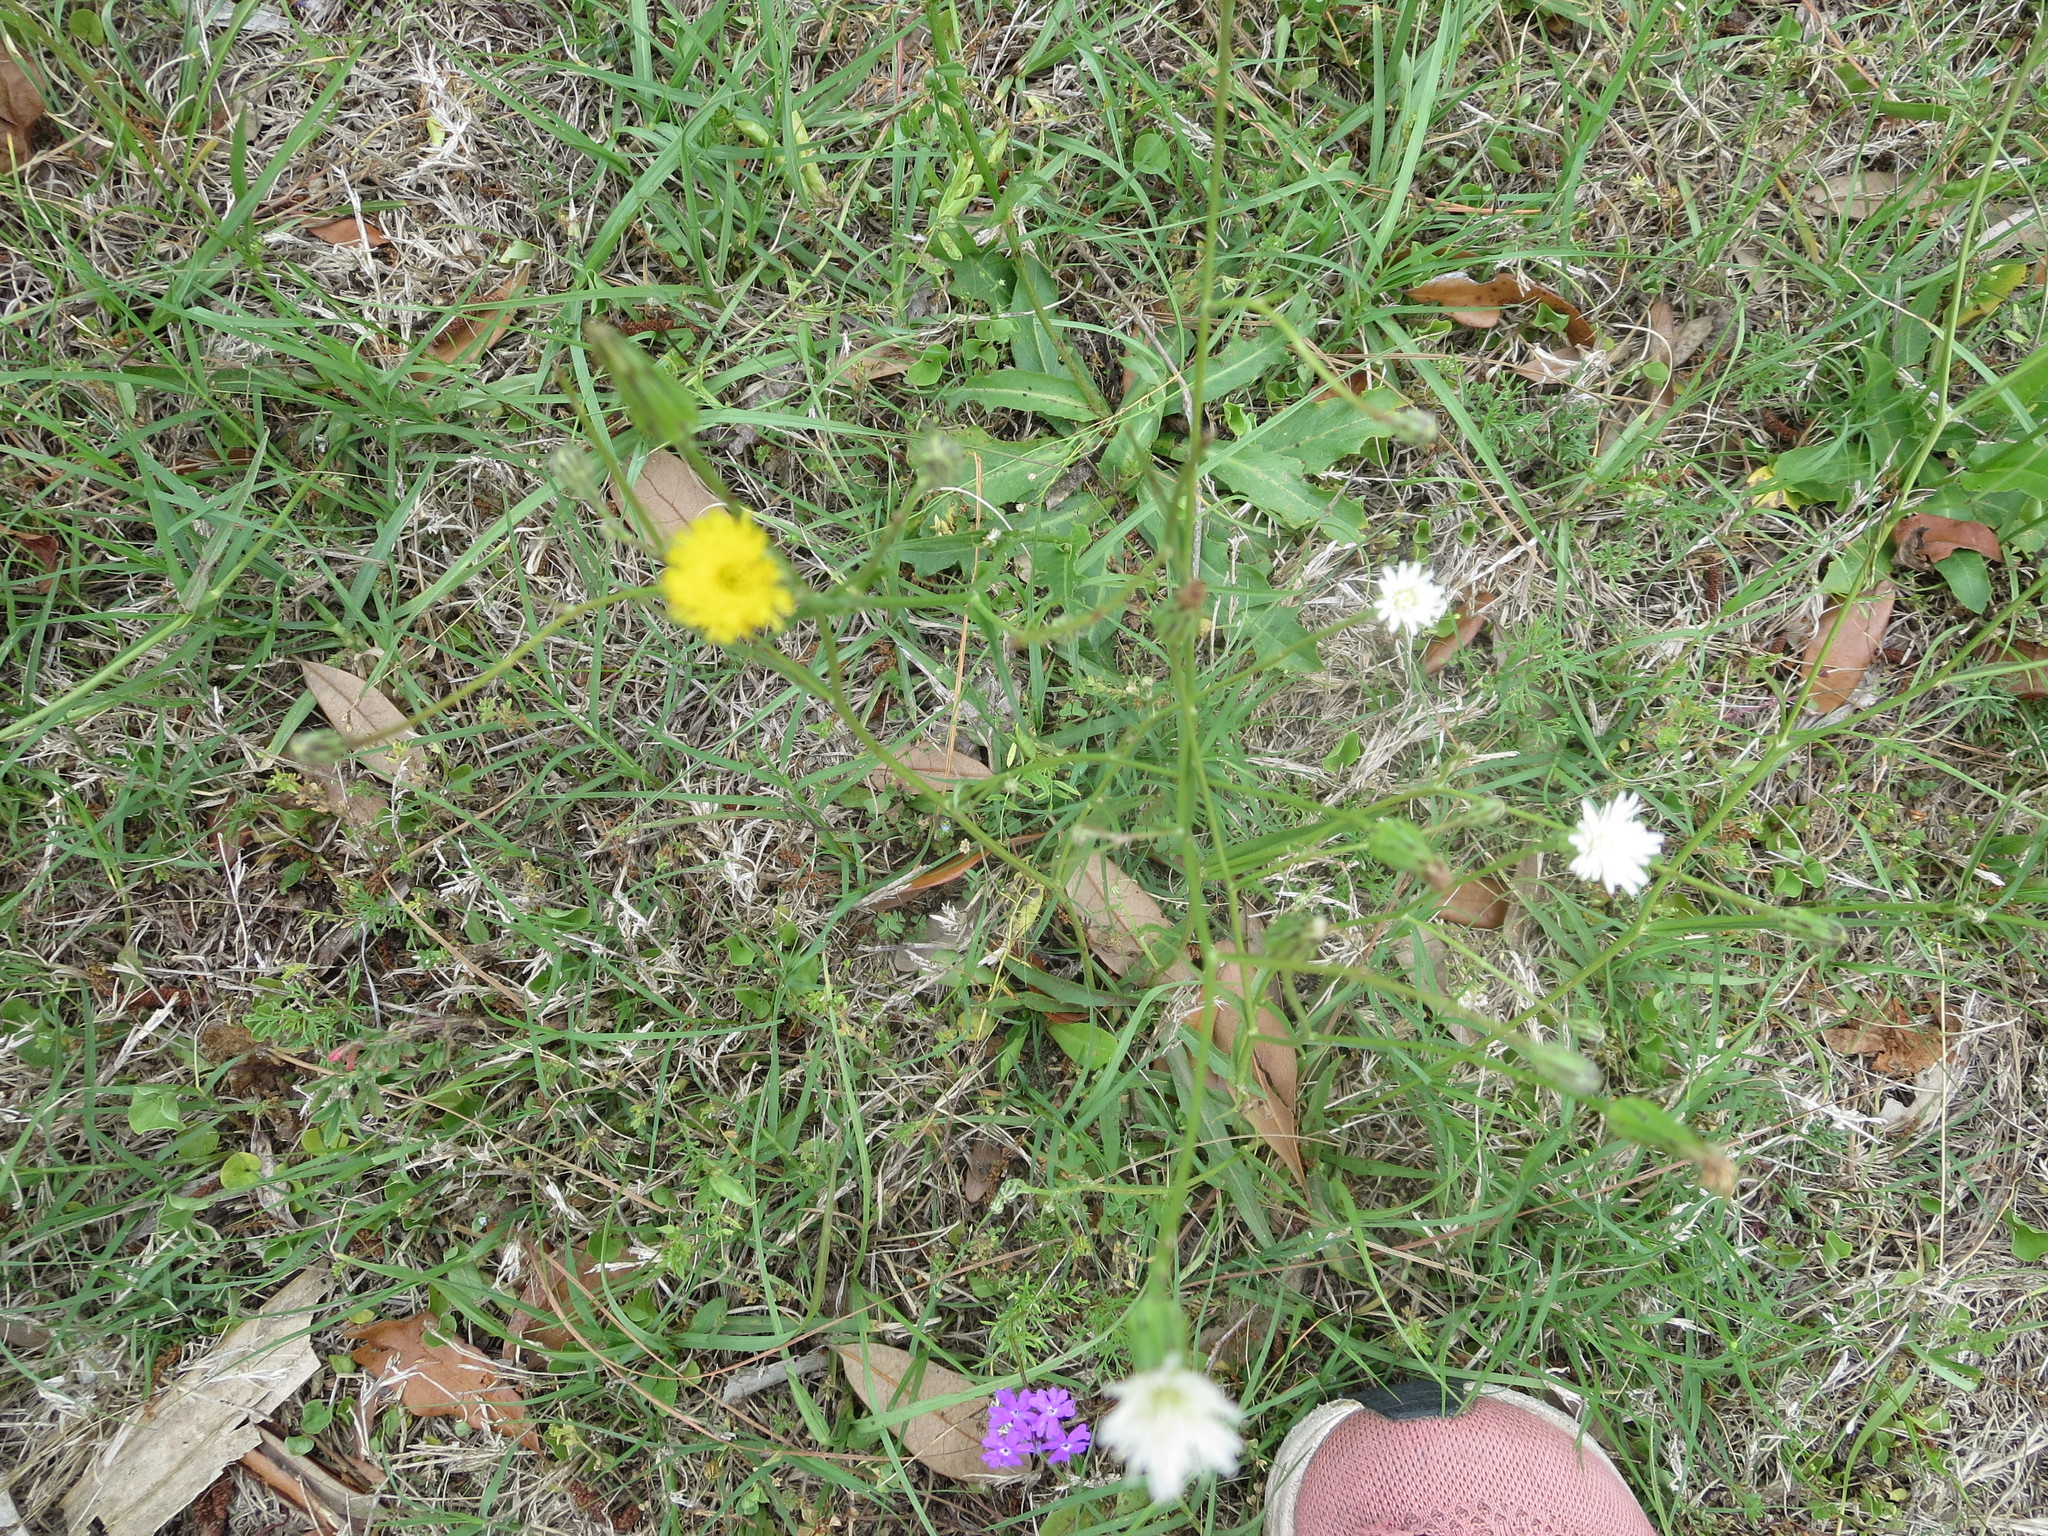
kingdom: Plantae
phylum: Tracheophyta
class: Magnoliopsida
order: Asterales
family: Asteraceae
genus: Hypochaeris
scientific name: Hypochaeris albiflora
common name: White flatweed
